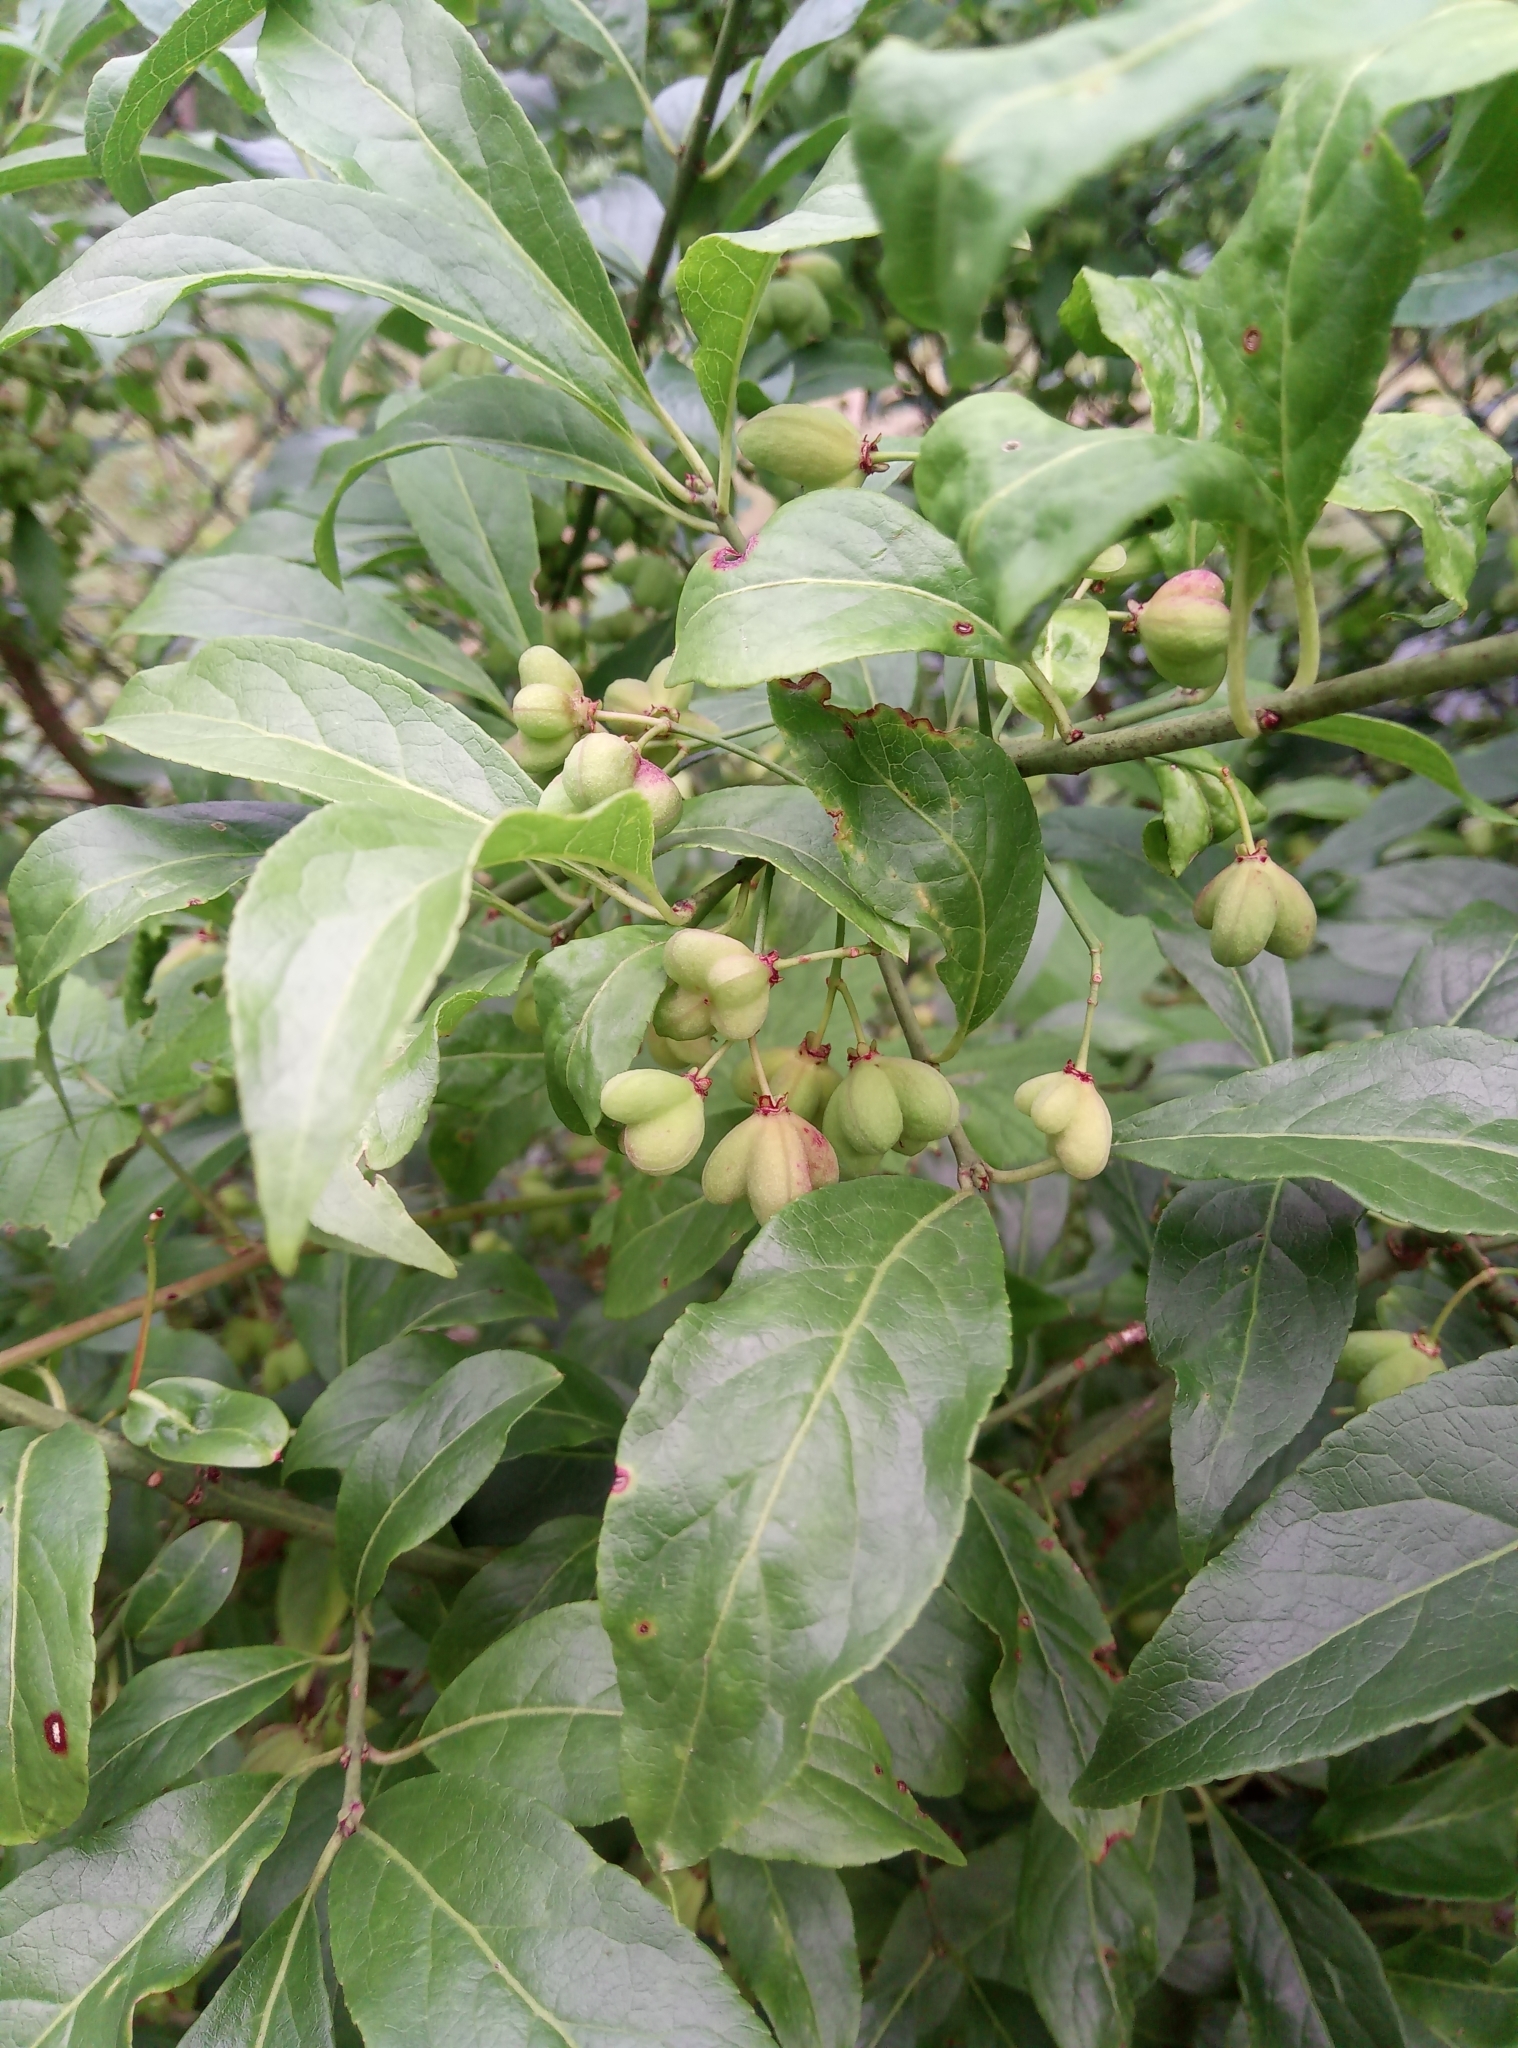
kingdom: Plantae
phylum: Tracheophyta
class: Magnoliopsida
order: Celastrales
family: Celastraceae
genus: Euonymus
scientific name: Euonymus europaeus
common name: Spindle
